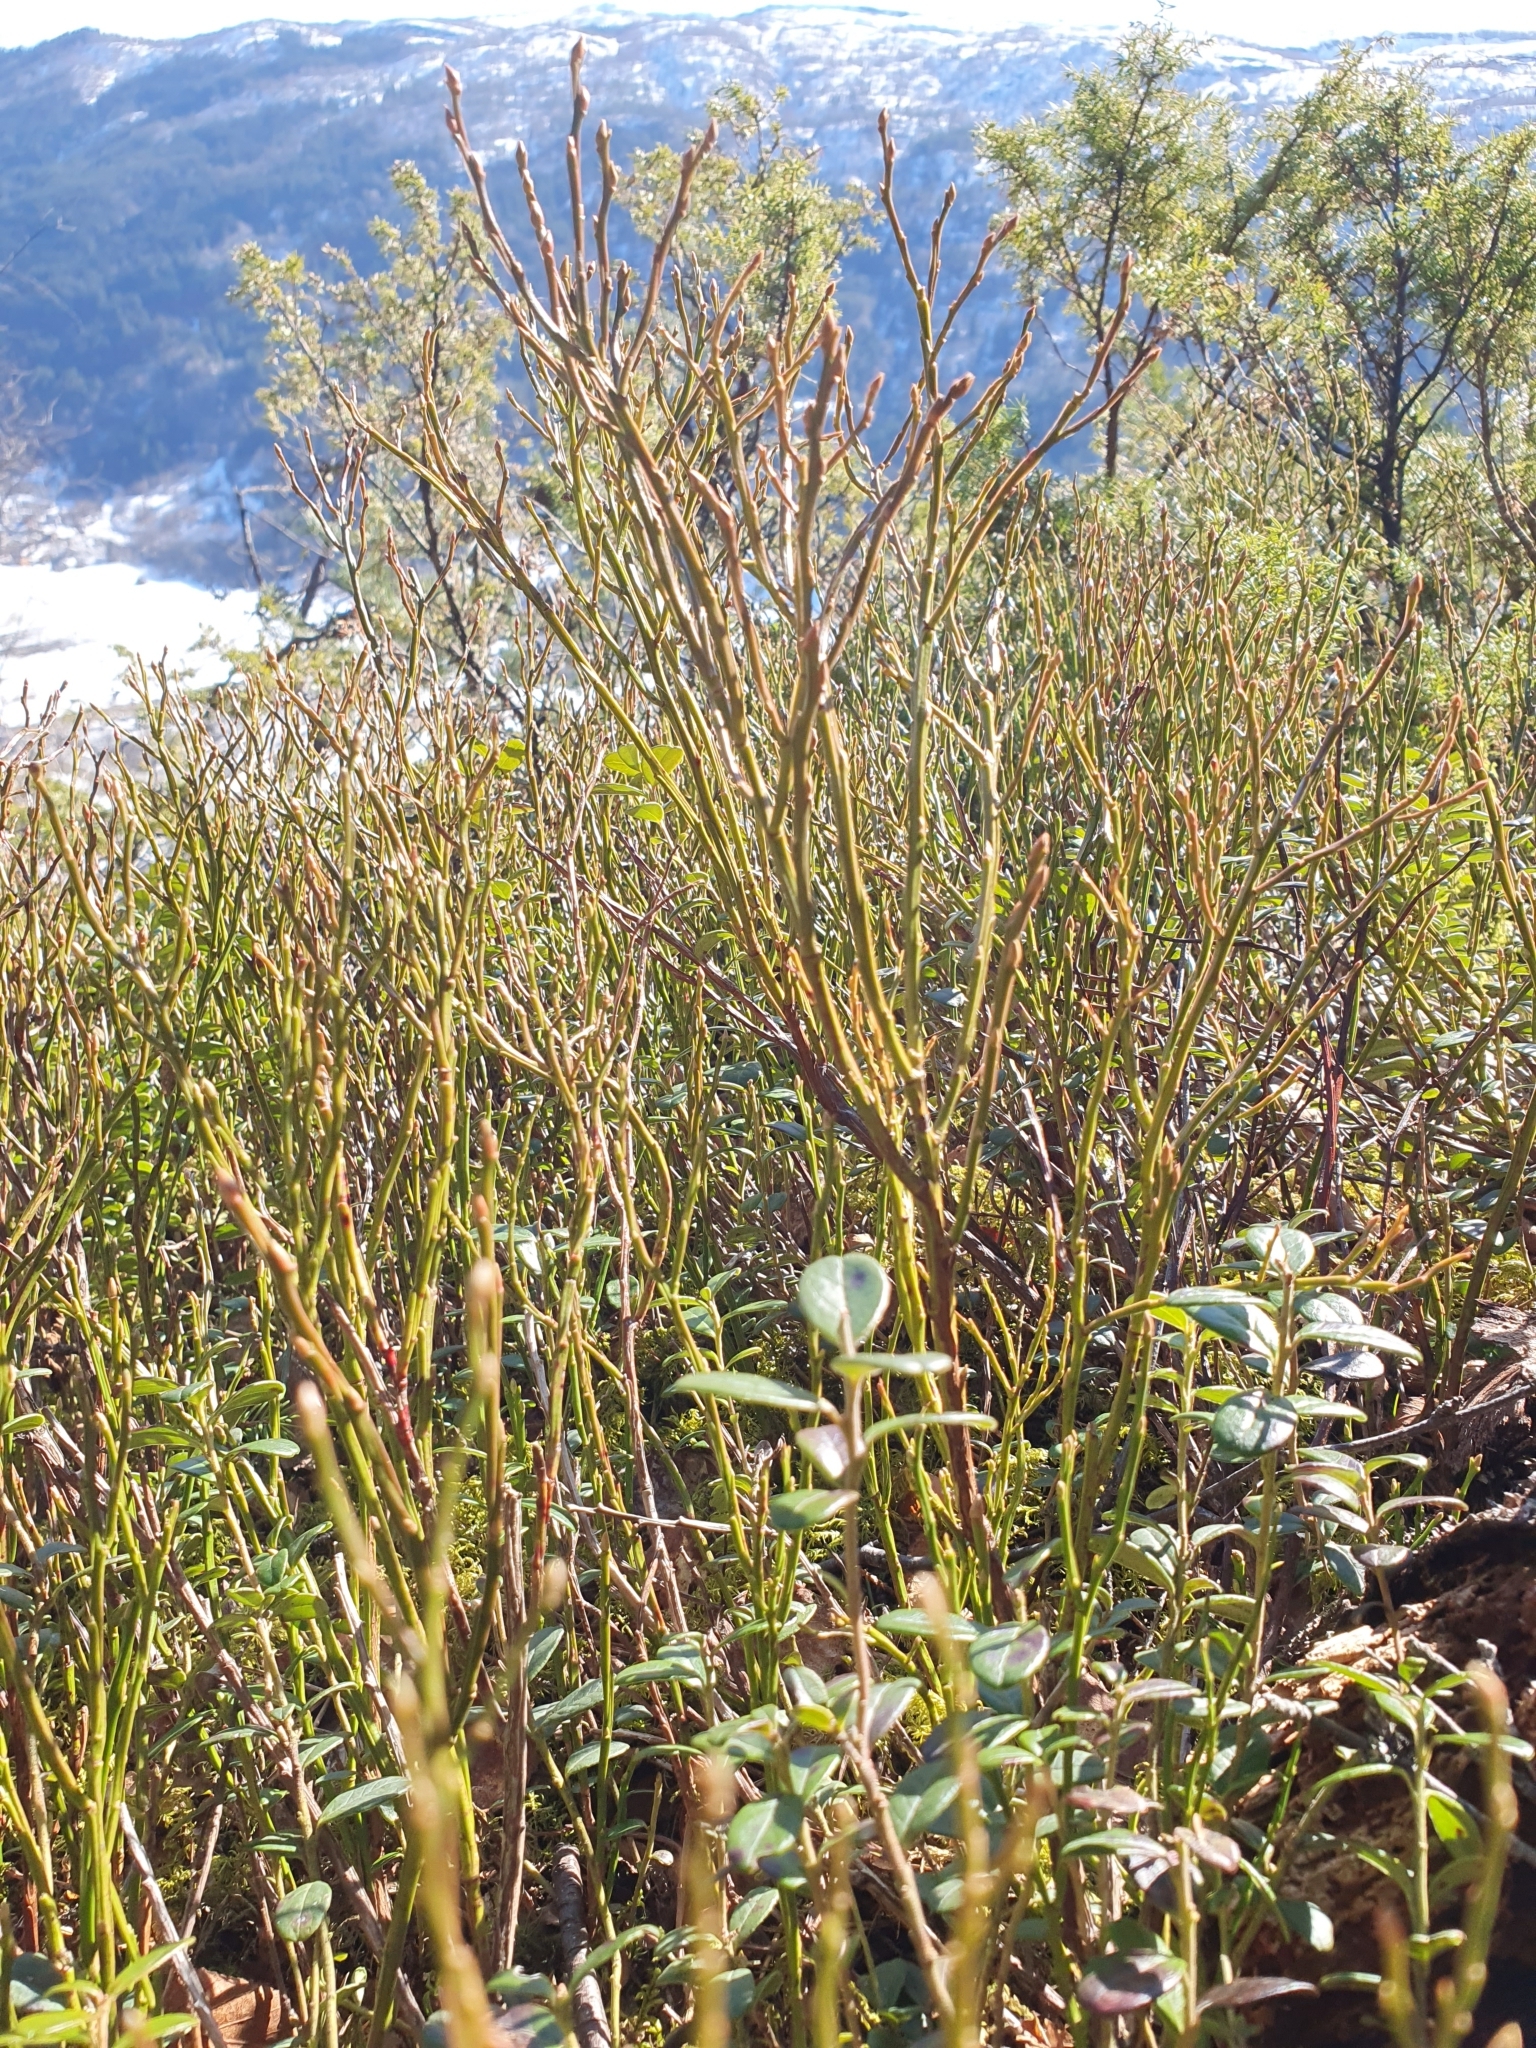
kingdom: Plantae
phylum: Tracheophyta
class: Magnoliopsida
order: Ericales
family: Ericaceae
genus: Vaccinium
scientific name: Vaccinium myrtillus
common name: Bilberry
